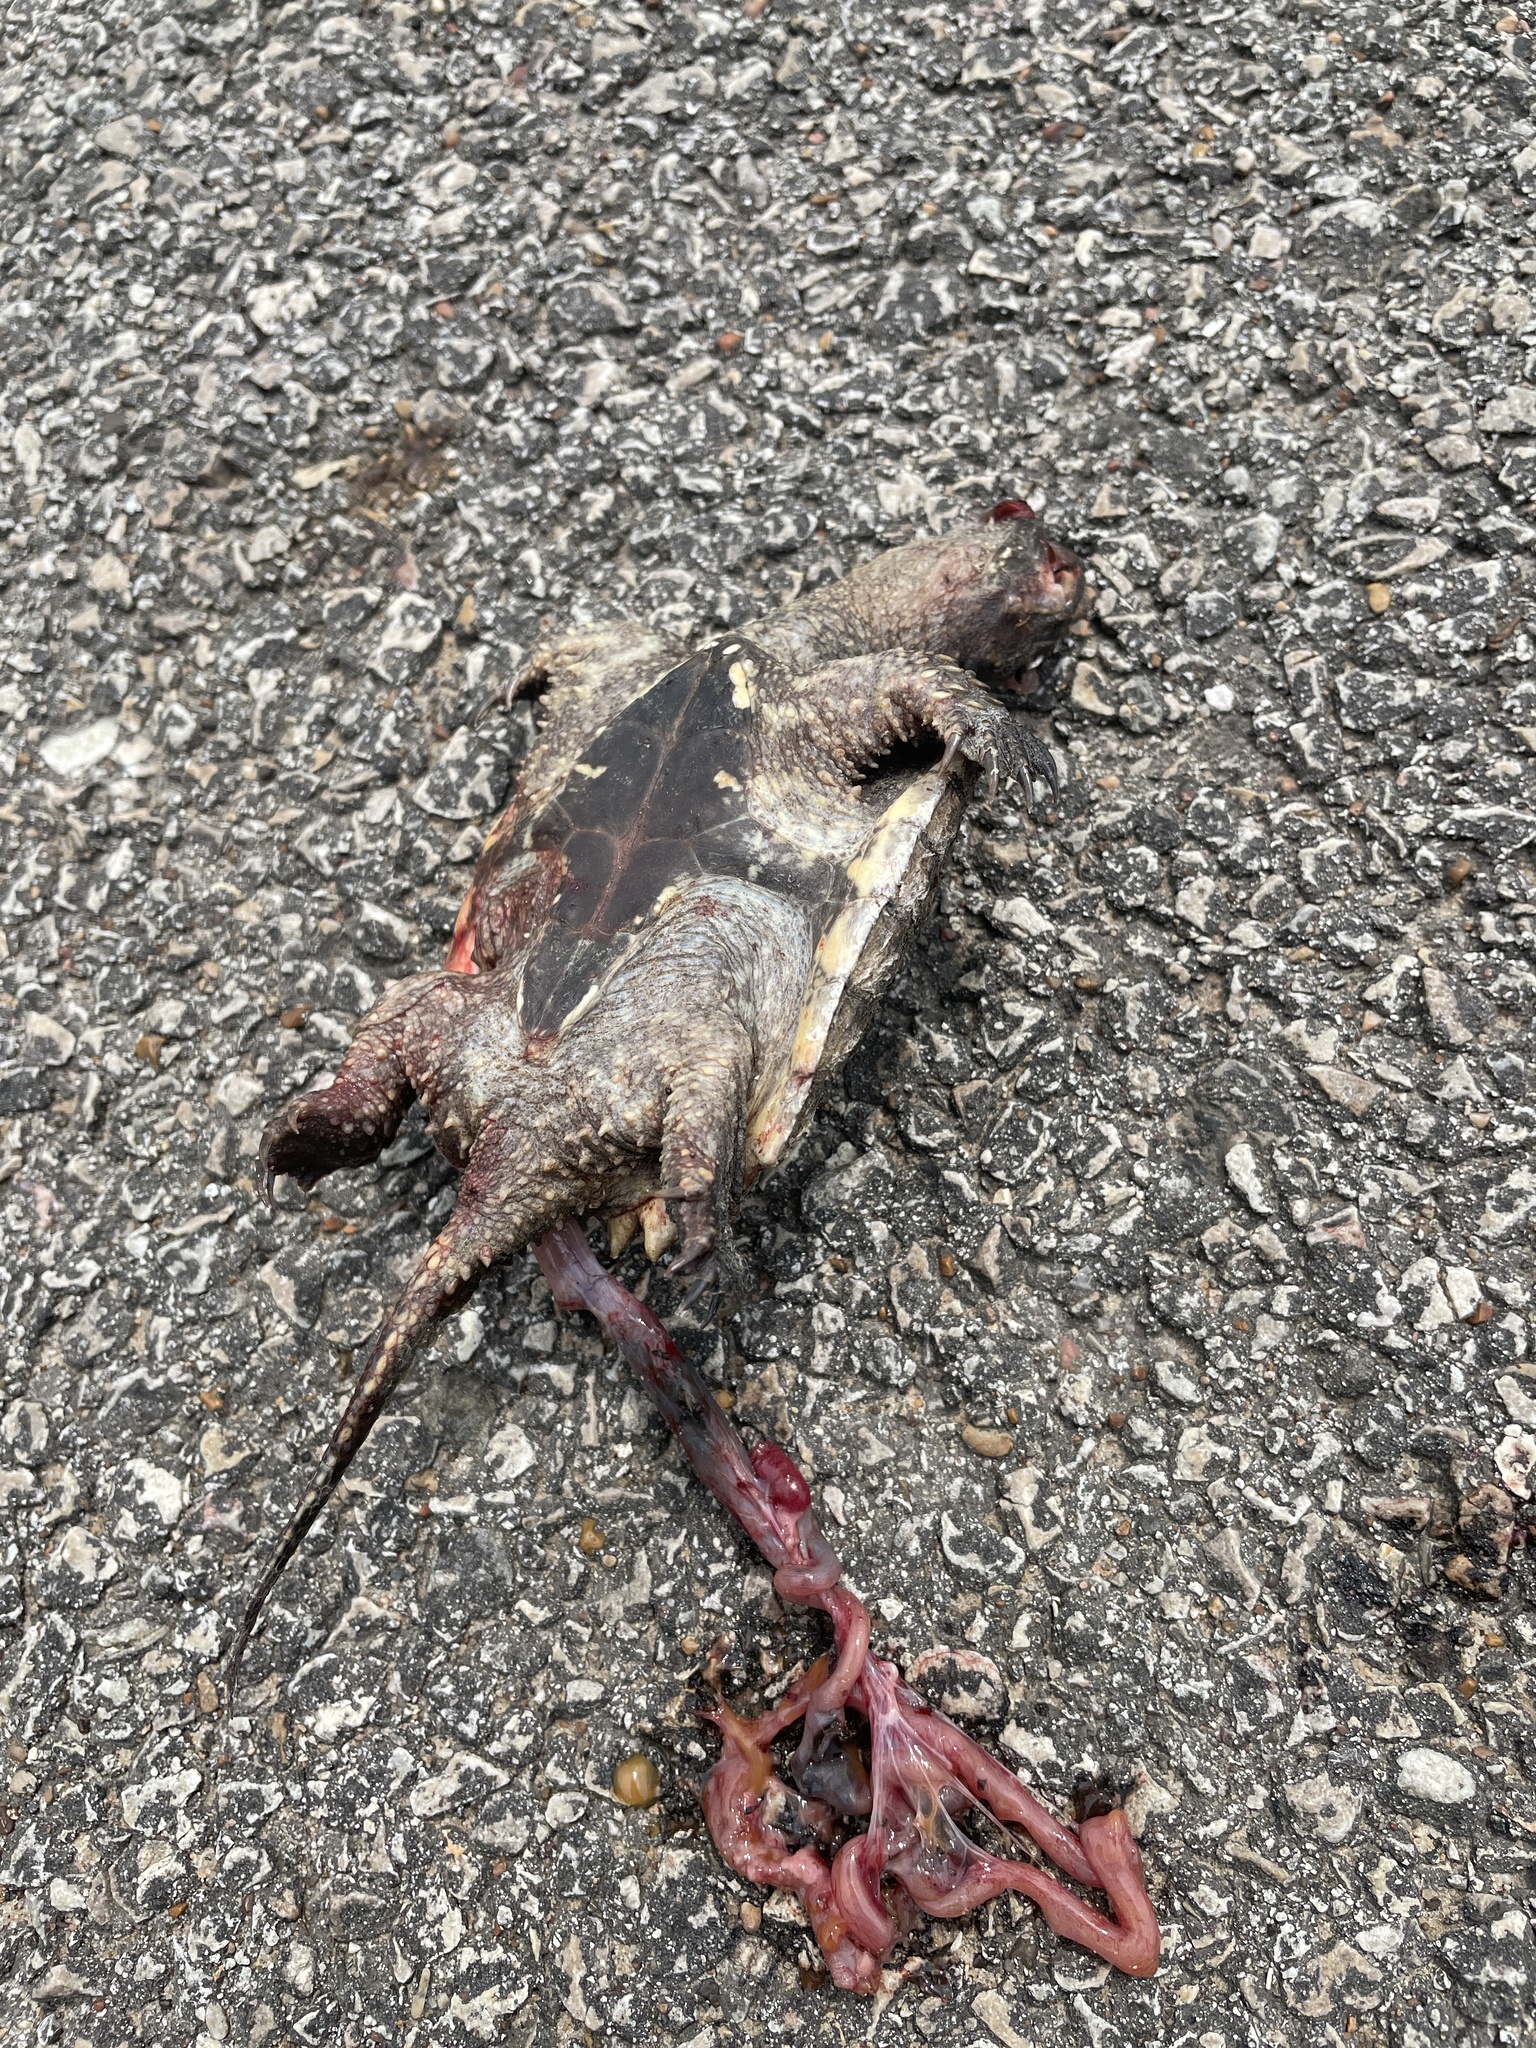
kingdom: Animalia
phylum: Chordata
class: Testudines
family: Chelydridae
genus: Chelydra
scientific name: Chelydra serpentina
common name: Common snapping turtle
